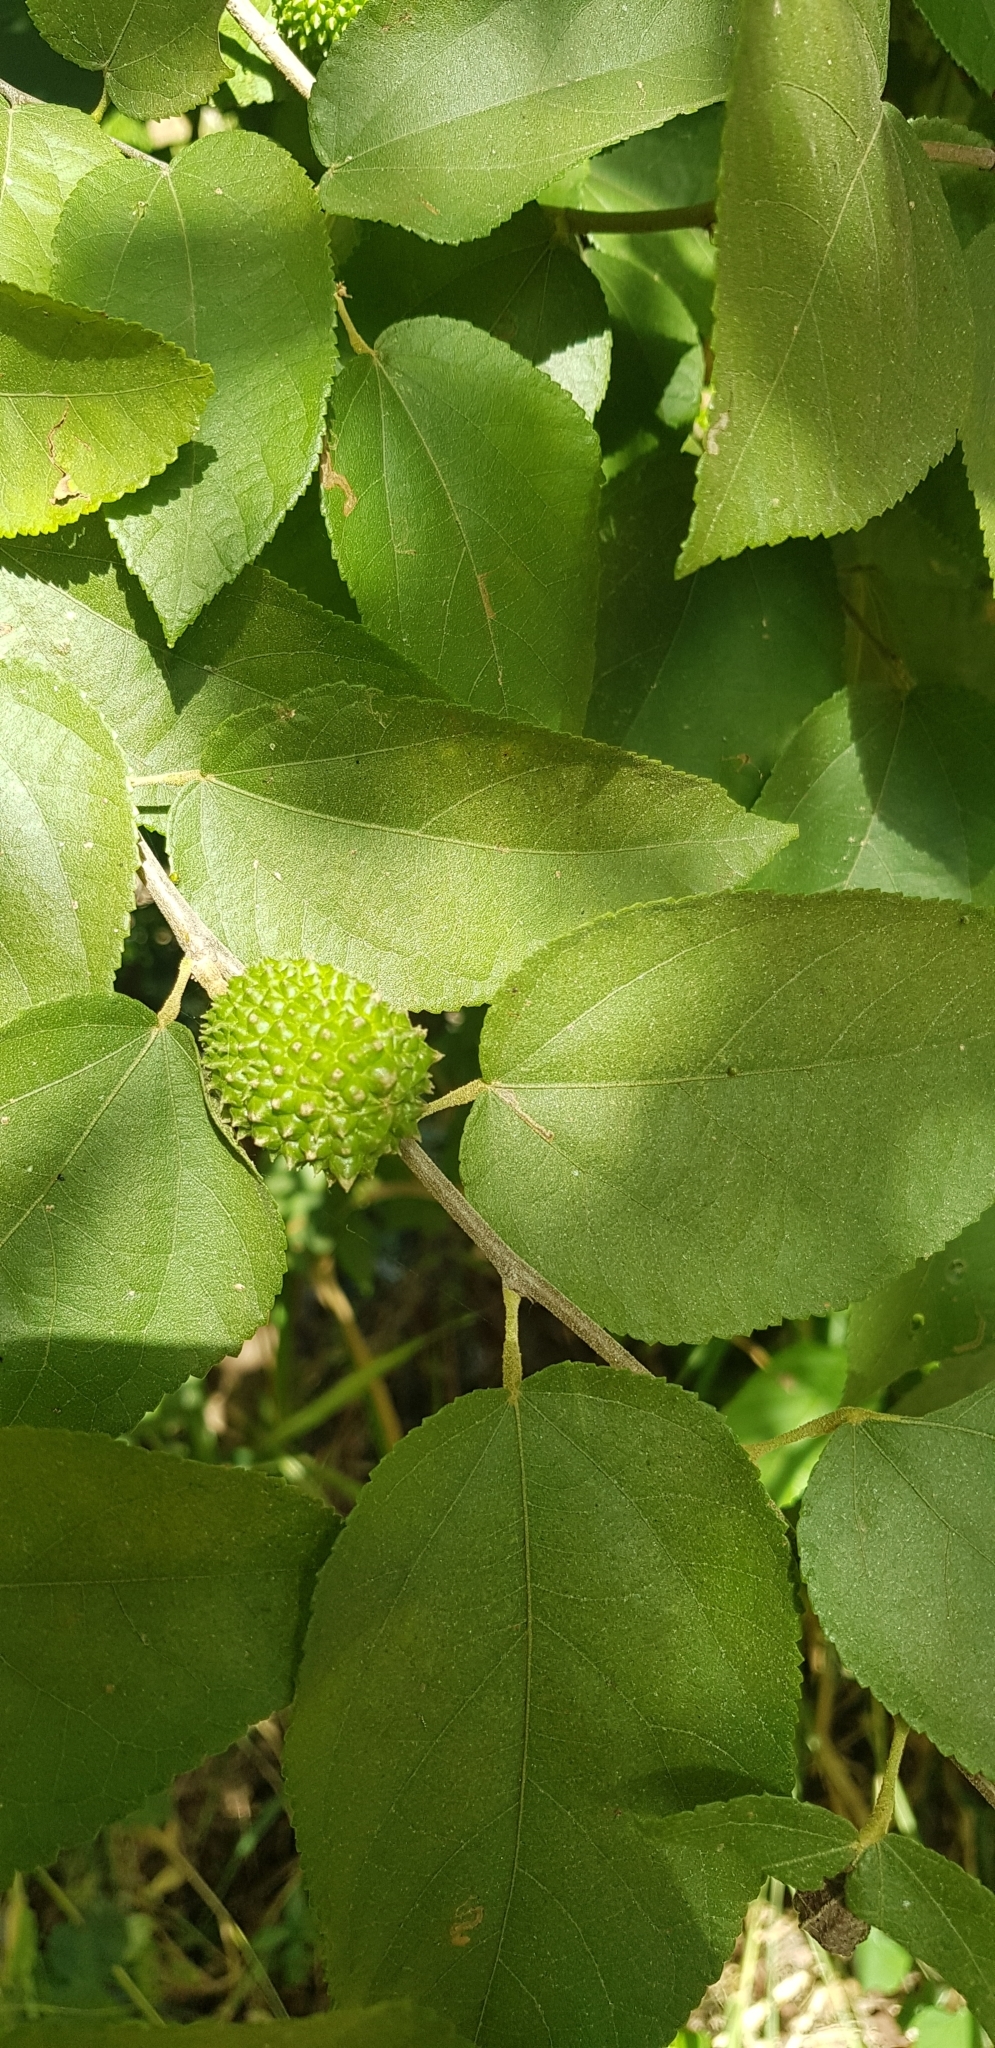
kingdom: Plantae
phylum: Tracheophyta
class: Magnoliopsida
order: Malvales
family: Malvaceae
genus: Guazuma
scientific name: Guazuma ulmifolia
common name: Bastard-cedar
